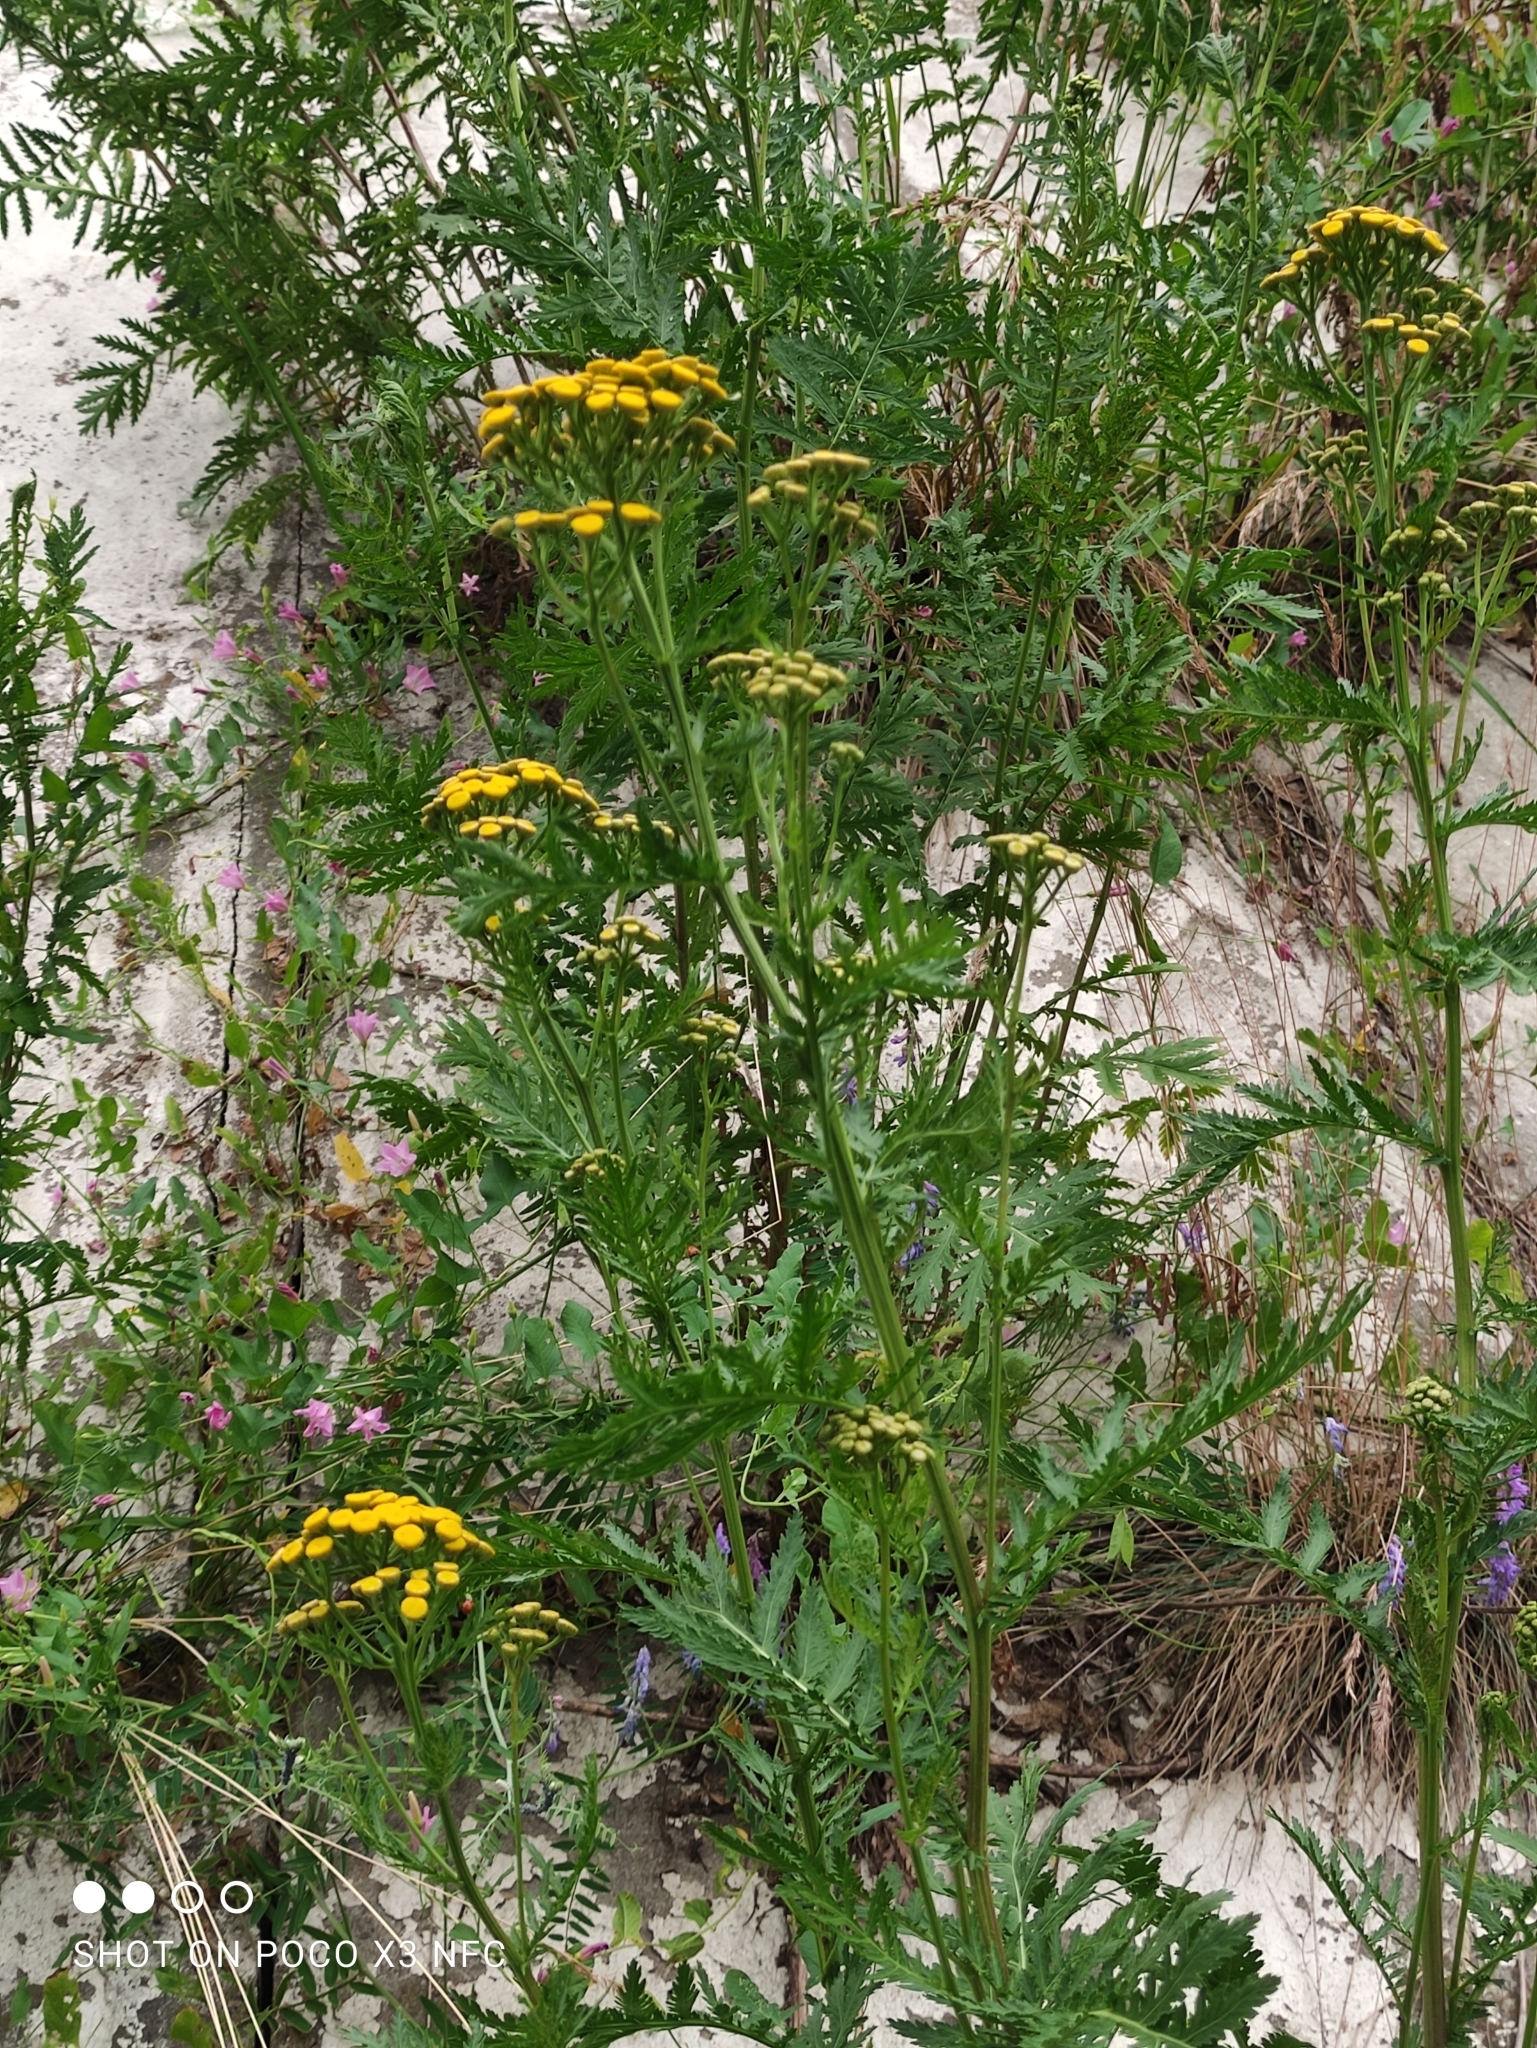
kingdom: Plantae
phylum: Tracheophyta
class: Magnoliopsida
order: Asterales
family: Asteraceae
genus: Tanacetum
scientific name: Tanacetum vulgare
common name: Common tansy
